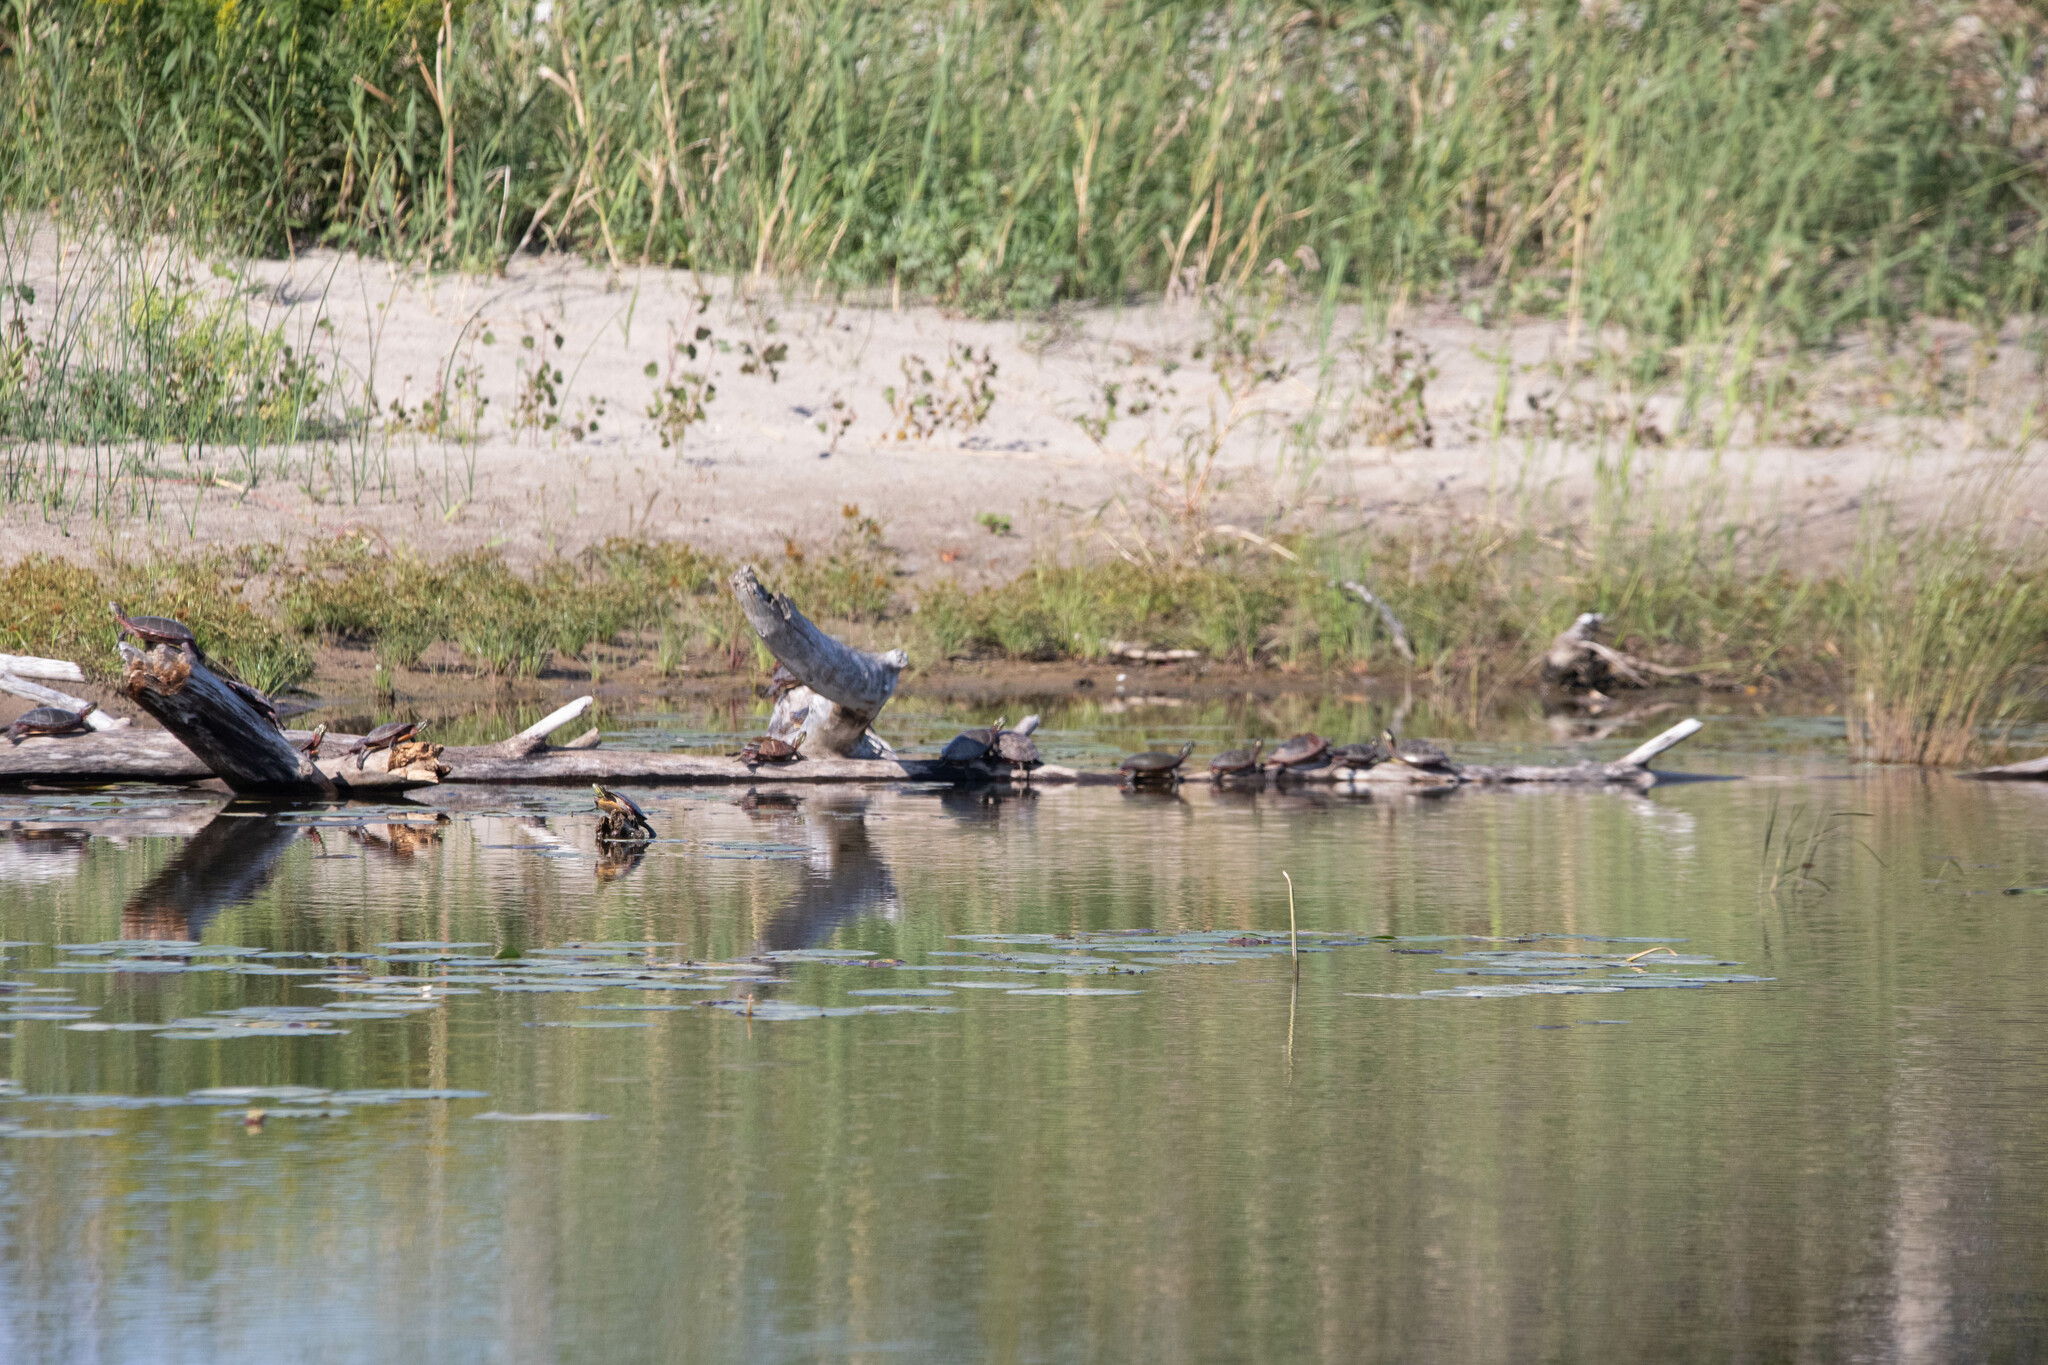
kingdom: Animalia
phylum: Chordata
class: Testudines
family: Emydidae
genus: Chrysemys
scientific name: Chrysemys picta
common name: Painted turtle
